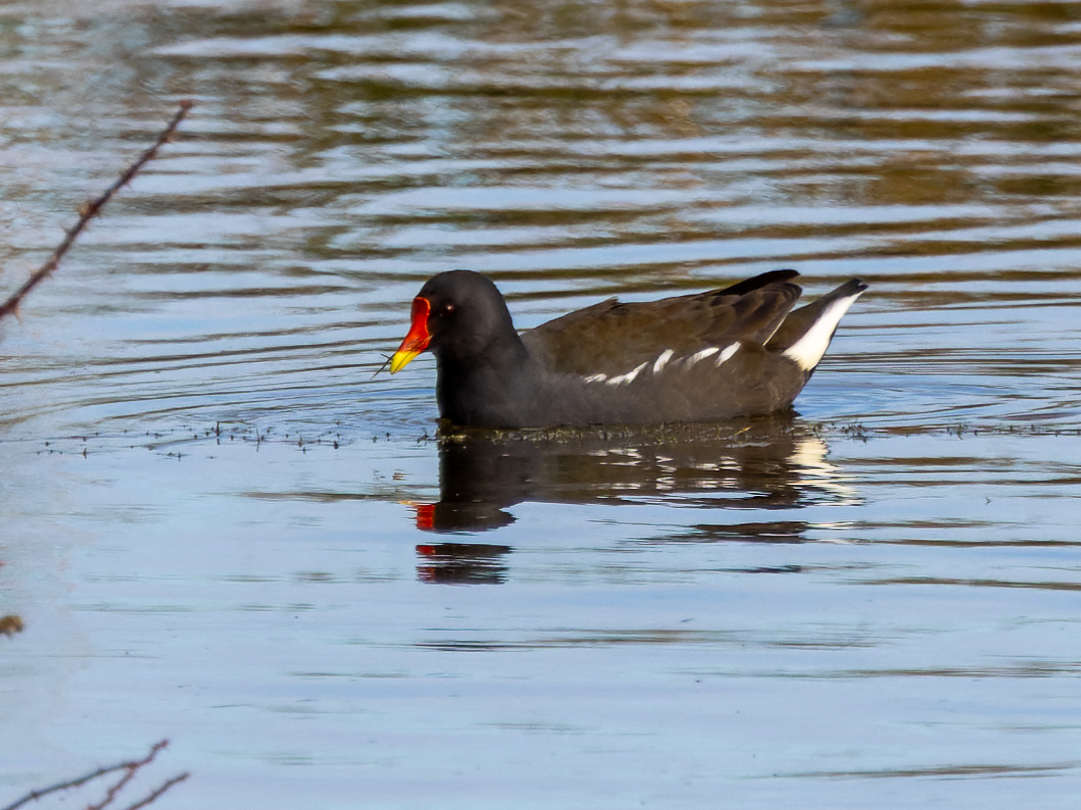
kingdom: Animalia
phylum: Chordata
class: Aves
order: Gruiformes
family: Rallidae
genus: Gallinula
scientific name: Gallinula chloropus
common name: Common moorhen
